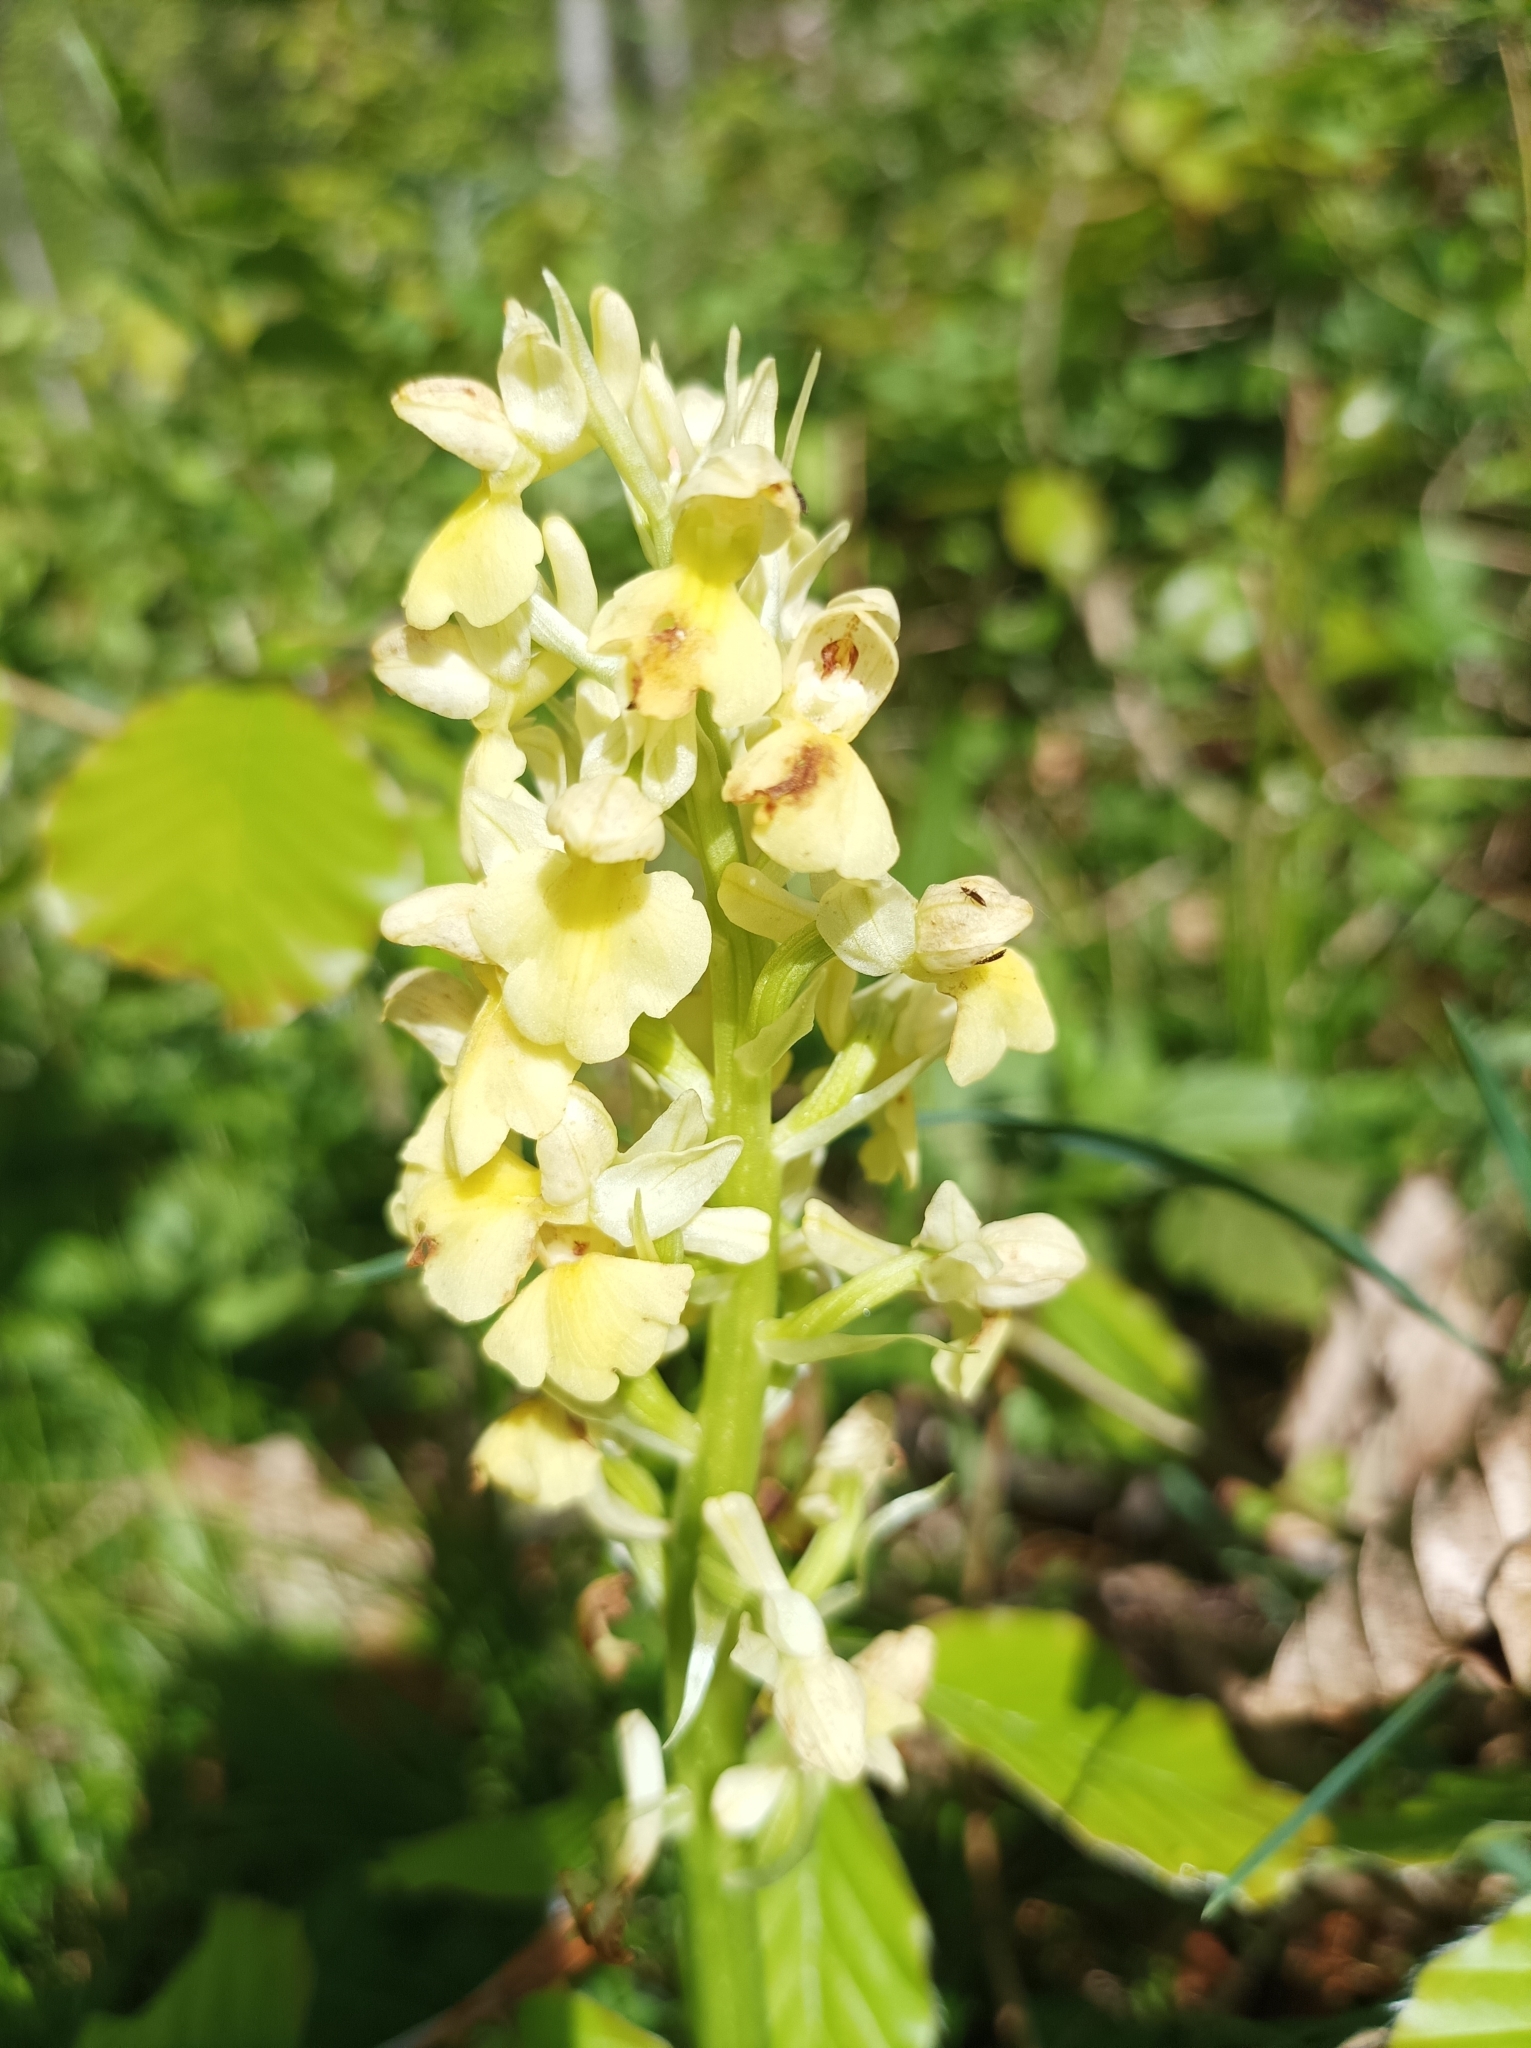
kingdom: Plantae
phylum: Tracheophyta
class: Liliopsida
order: Asparagales
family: Orchidaceae
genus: Orchis
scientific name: Orchis pallens
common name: Pale-flowered orchid
